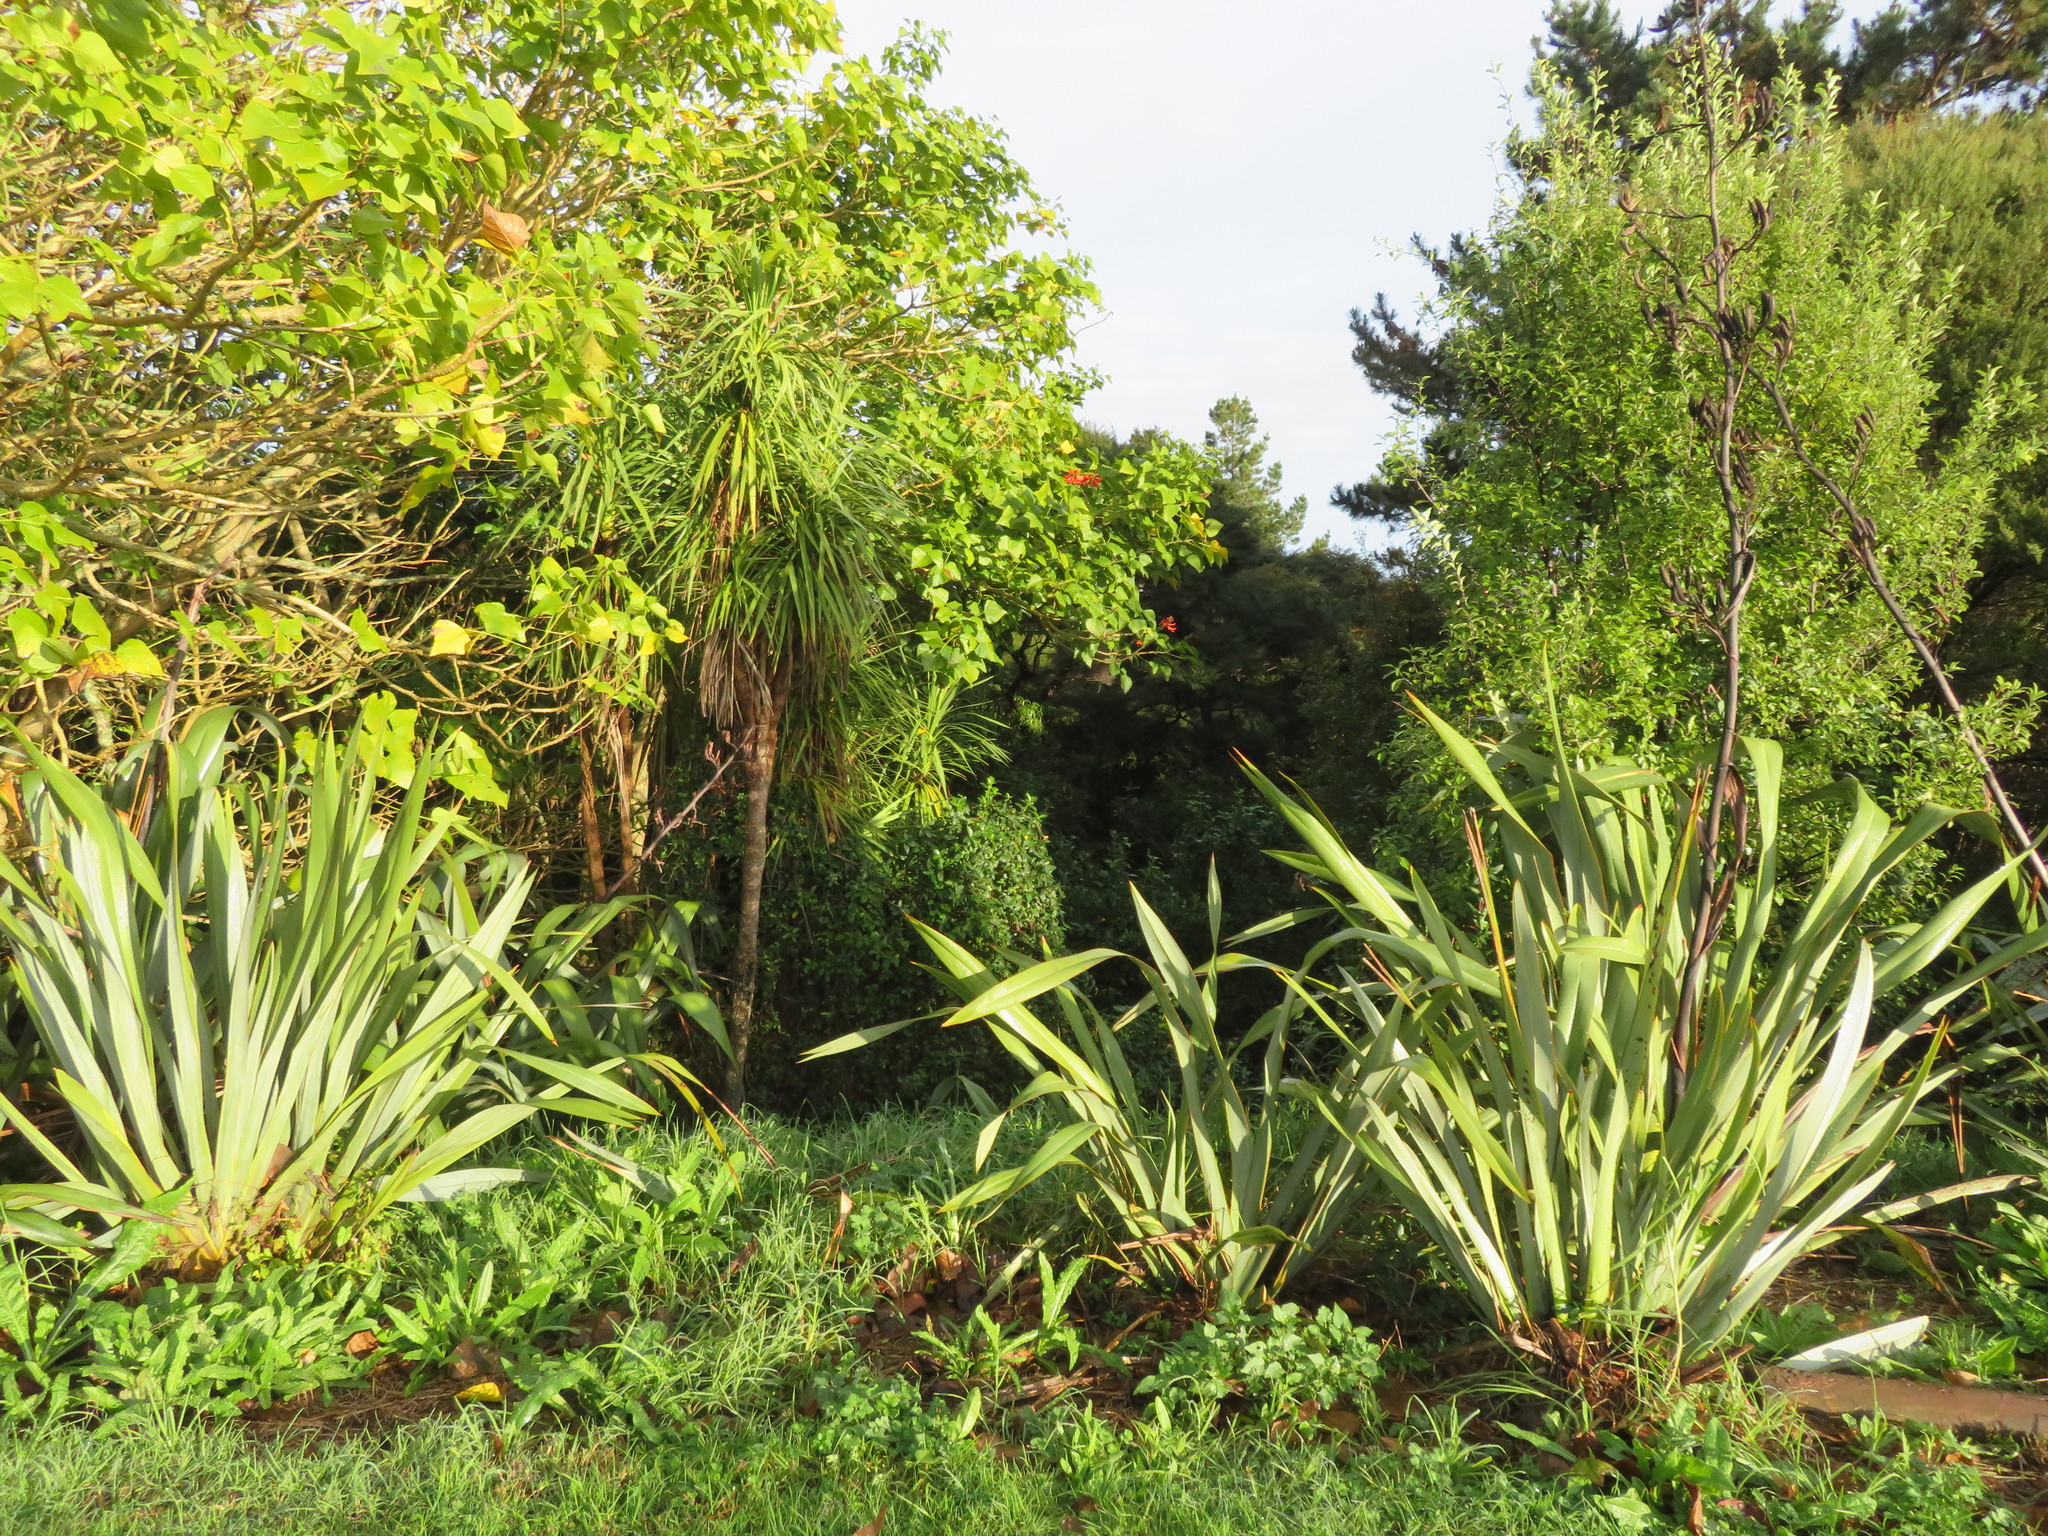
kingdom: Plantae
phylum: Tracheophyta
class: Liliopsida
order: Poales
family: Poaceae
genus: Cenchrus
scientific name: Cenchrus clandestinus
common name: Kikuyugrass
